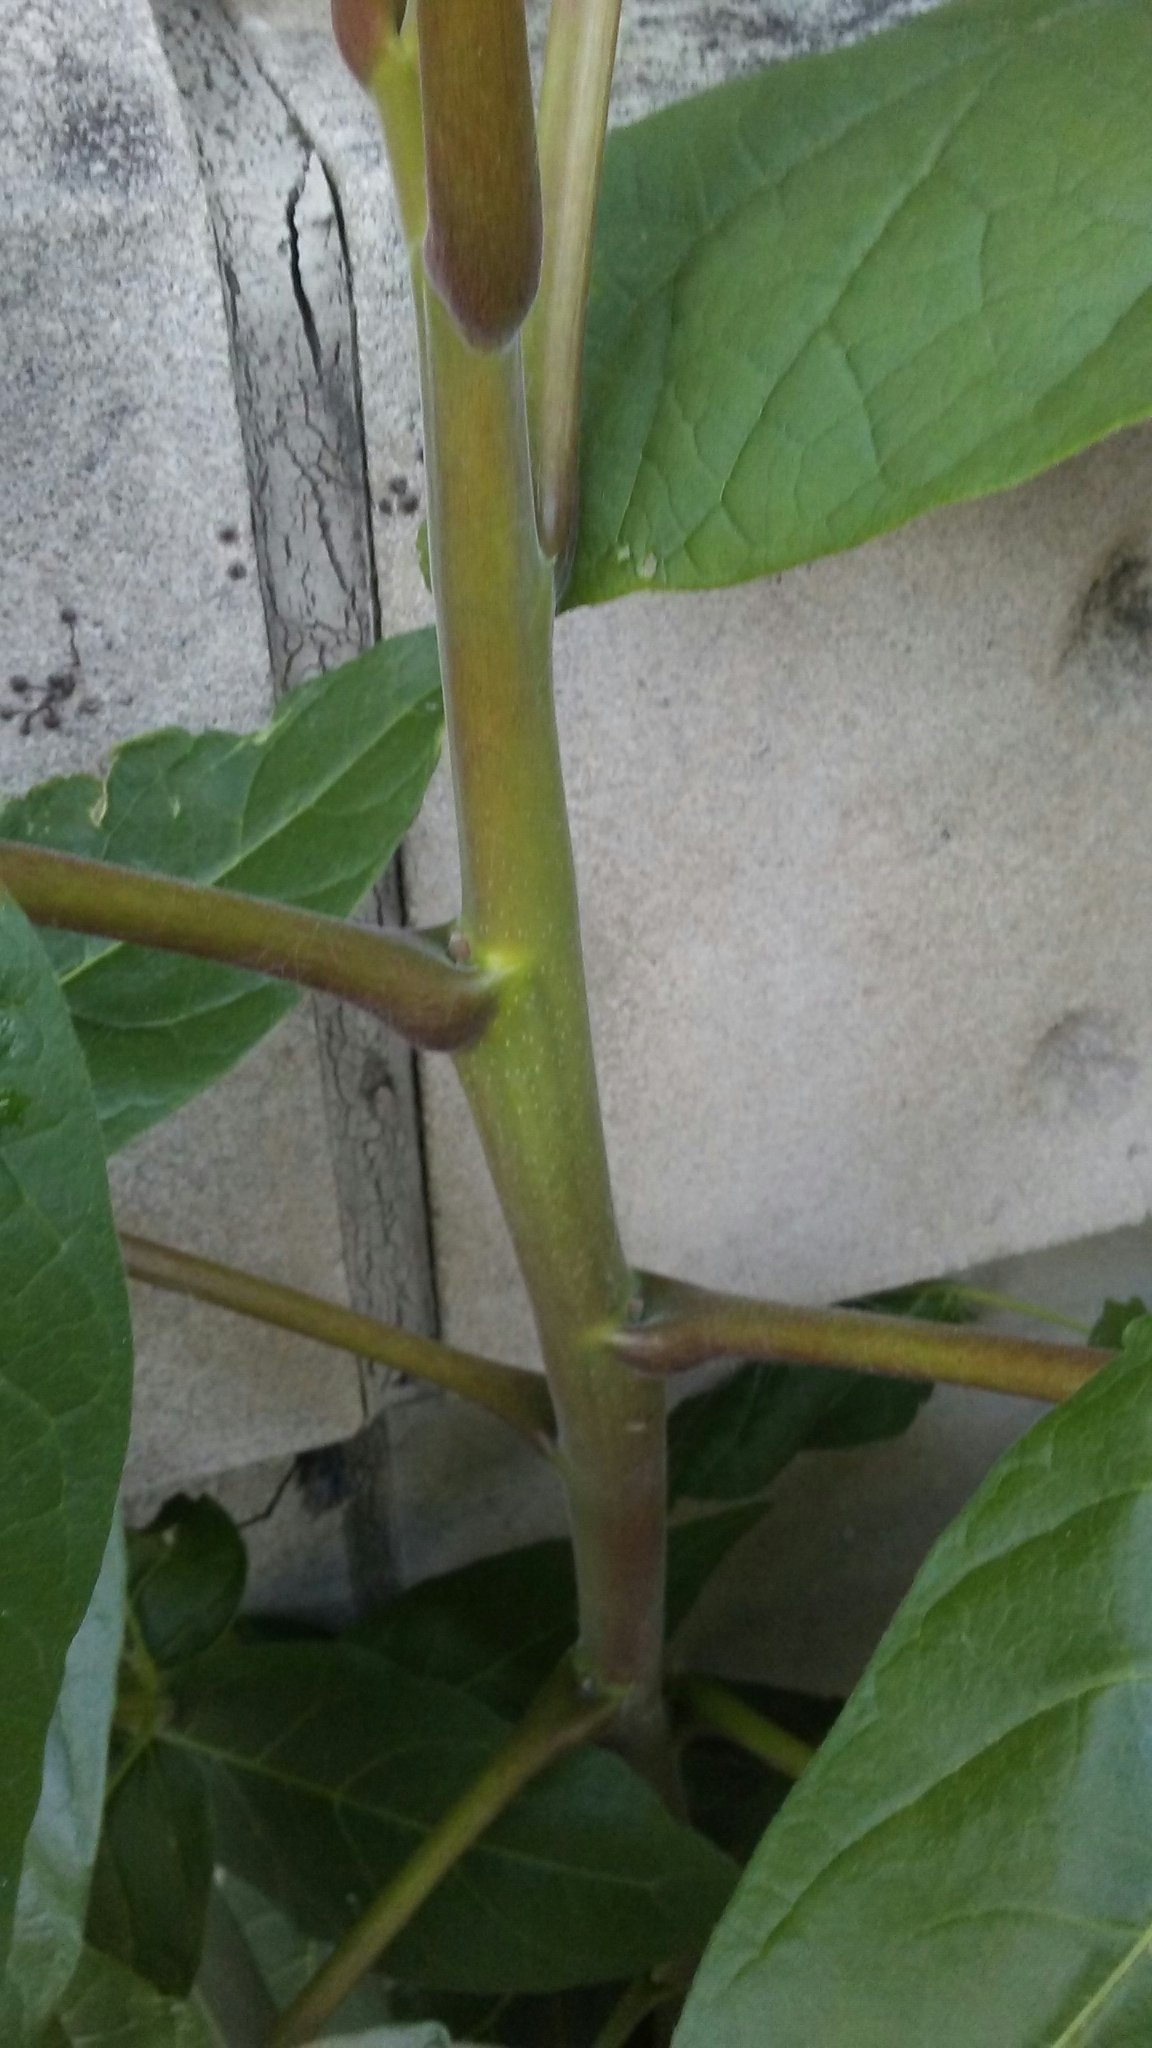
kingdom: Plantae
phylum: Tracheophyta
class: Magnoliopsida
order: Sapindales
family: Simaroubaceae
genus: Ailanthus
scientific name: Ailanthus altissima
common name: Tree-of-heaven
